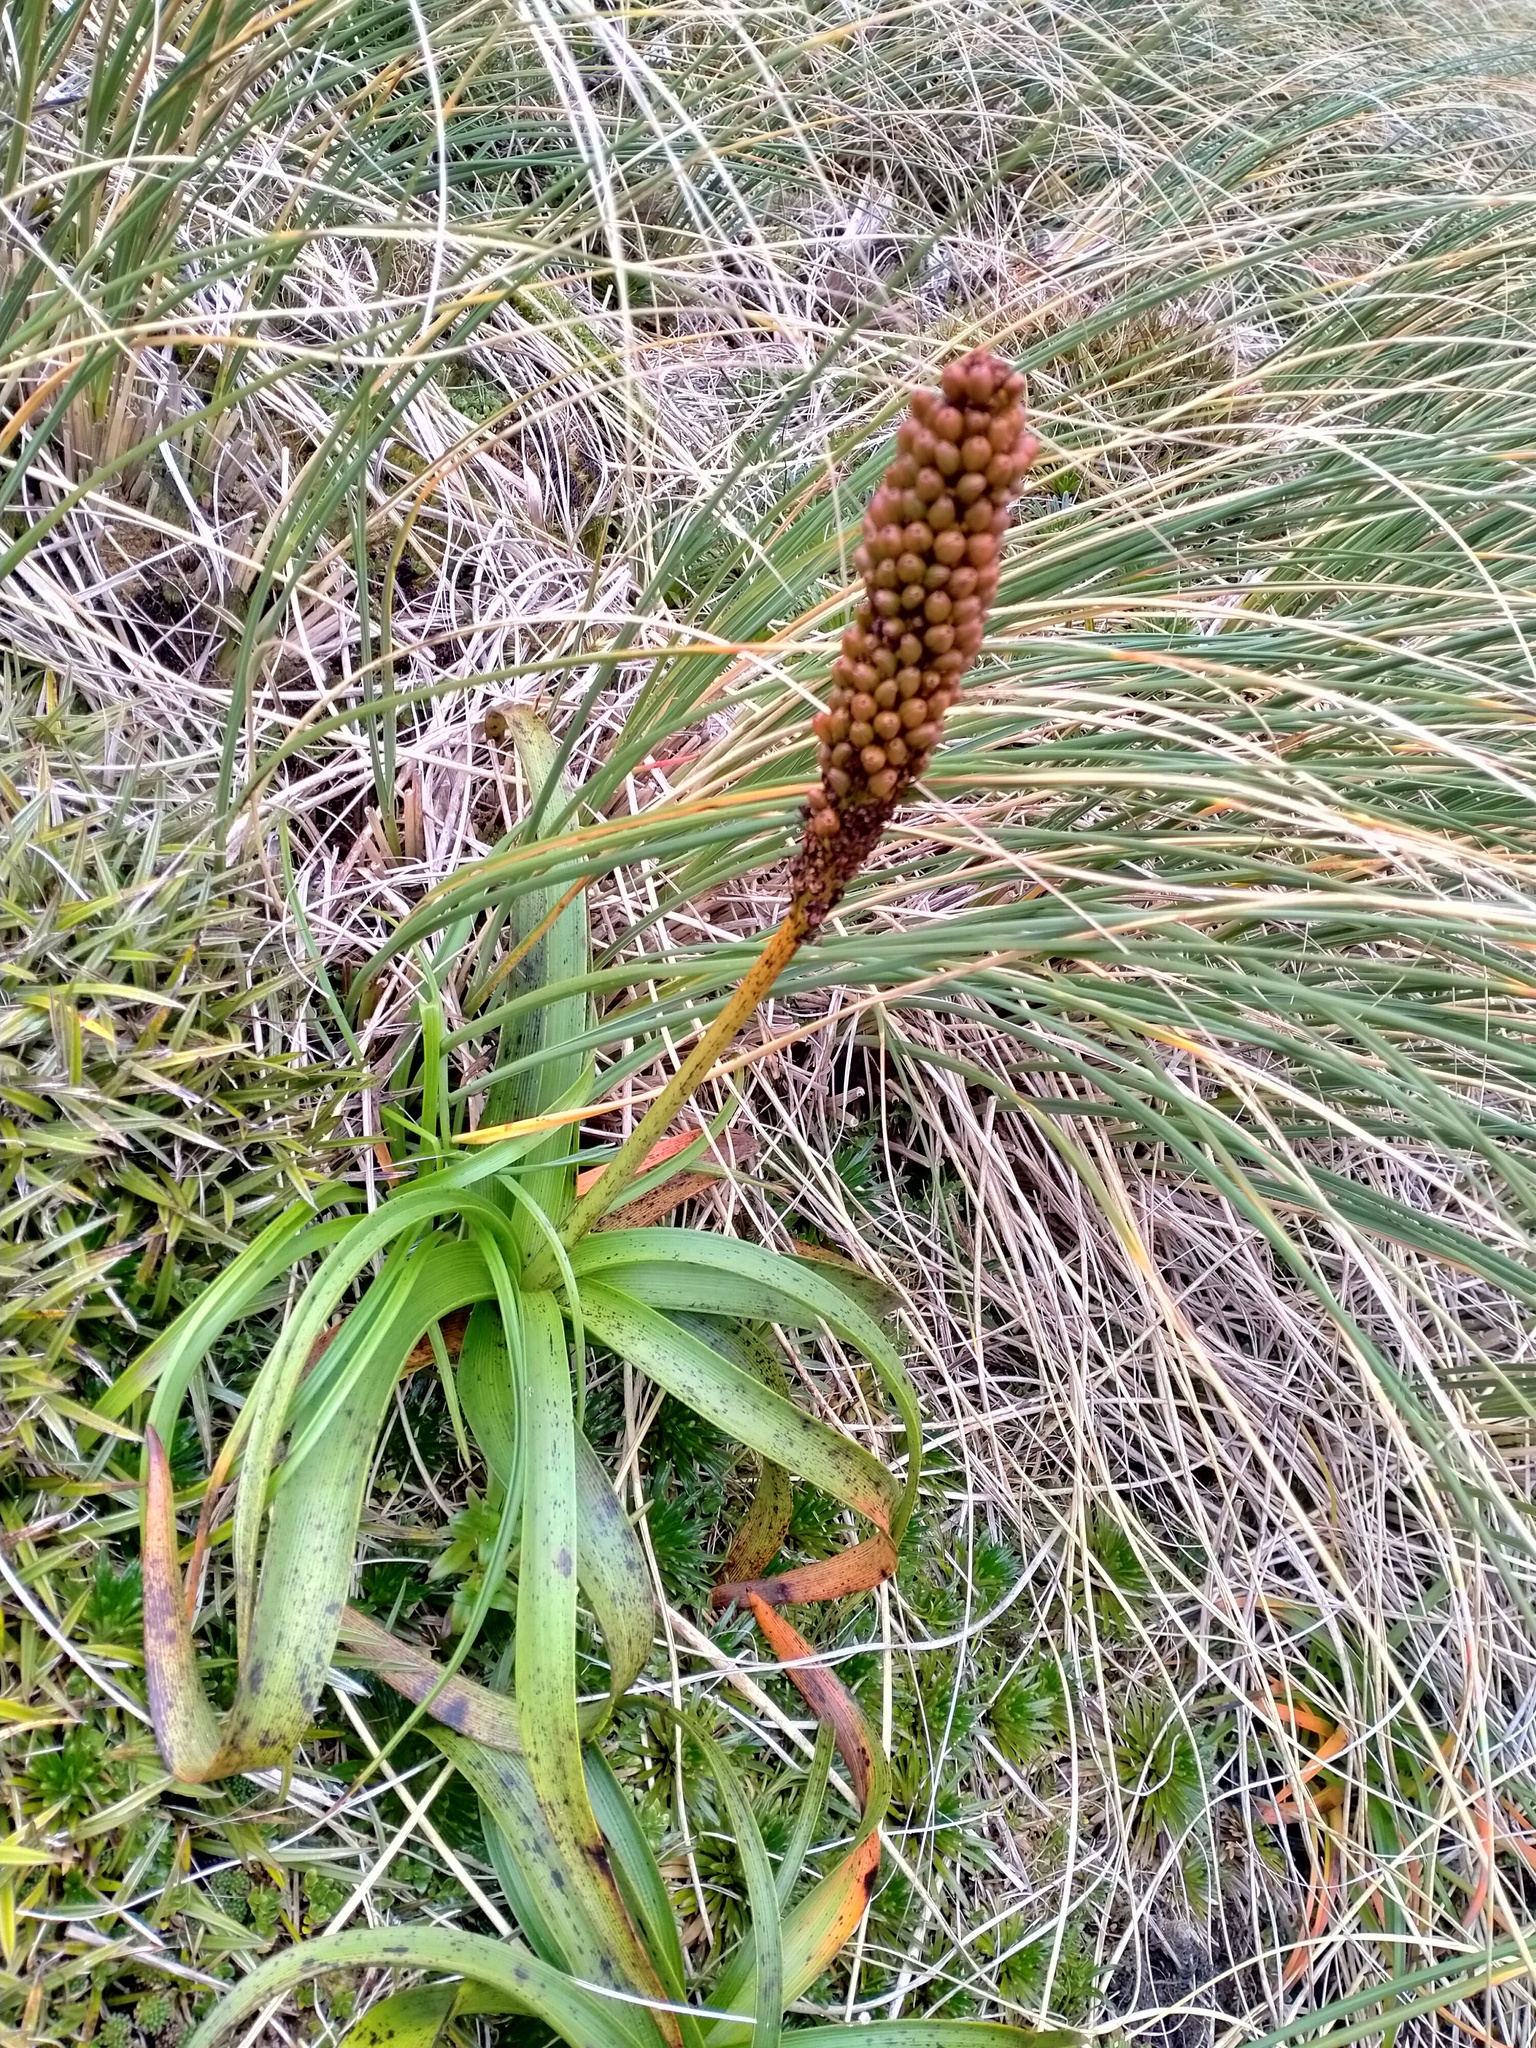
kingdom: Plantae
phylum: Tracheophyta
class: Liliopsida
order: Asparagales
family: Asphodelaceae
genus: Bulbinella
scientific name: Bulbinella rossii
